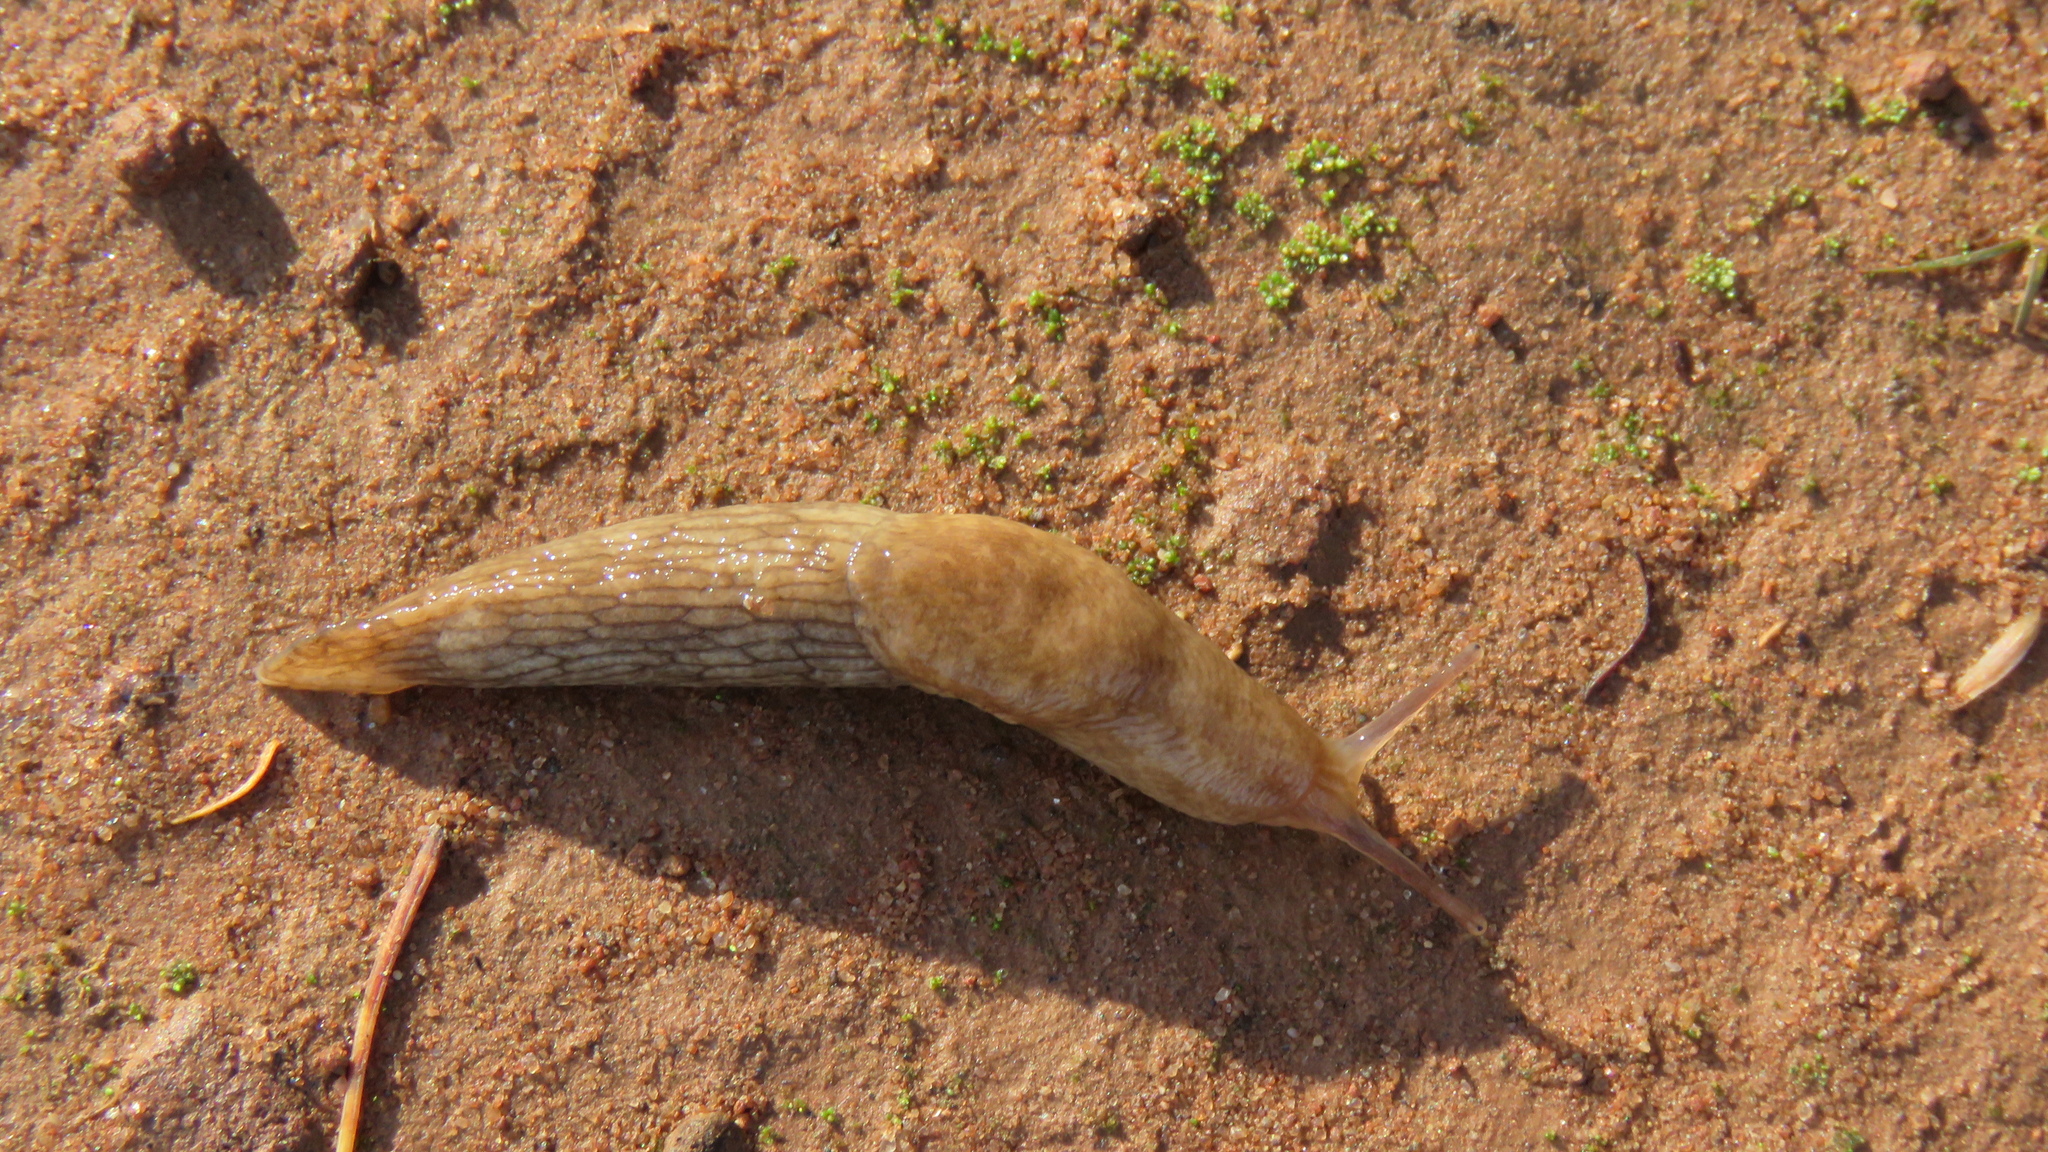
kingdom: Animalia
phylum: Mollusca
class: Gastropoda
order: Stylommatophora
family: Agriolimacidae
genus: Deroceras
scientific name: Deroceras reticulatum
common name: Gray field slug
